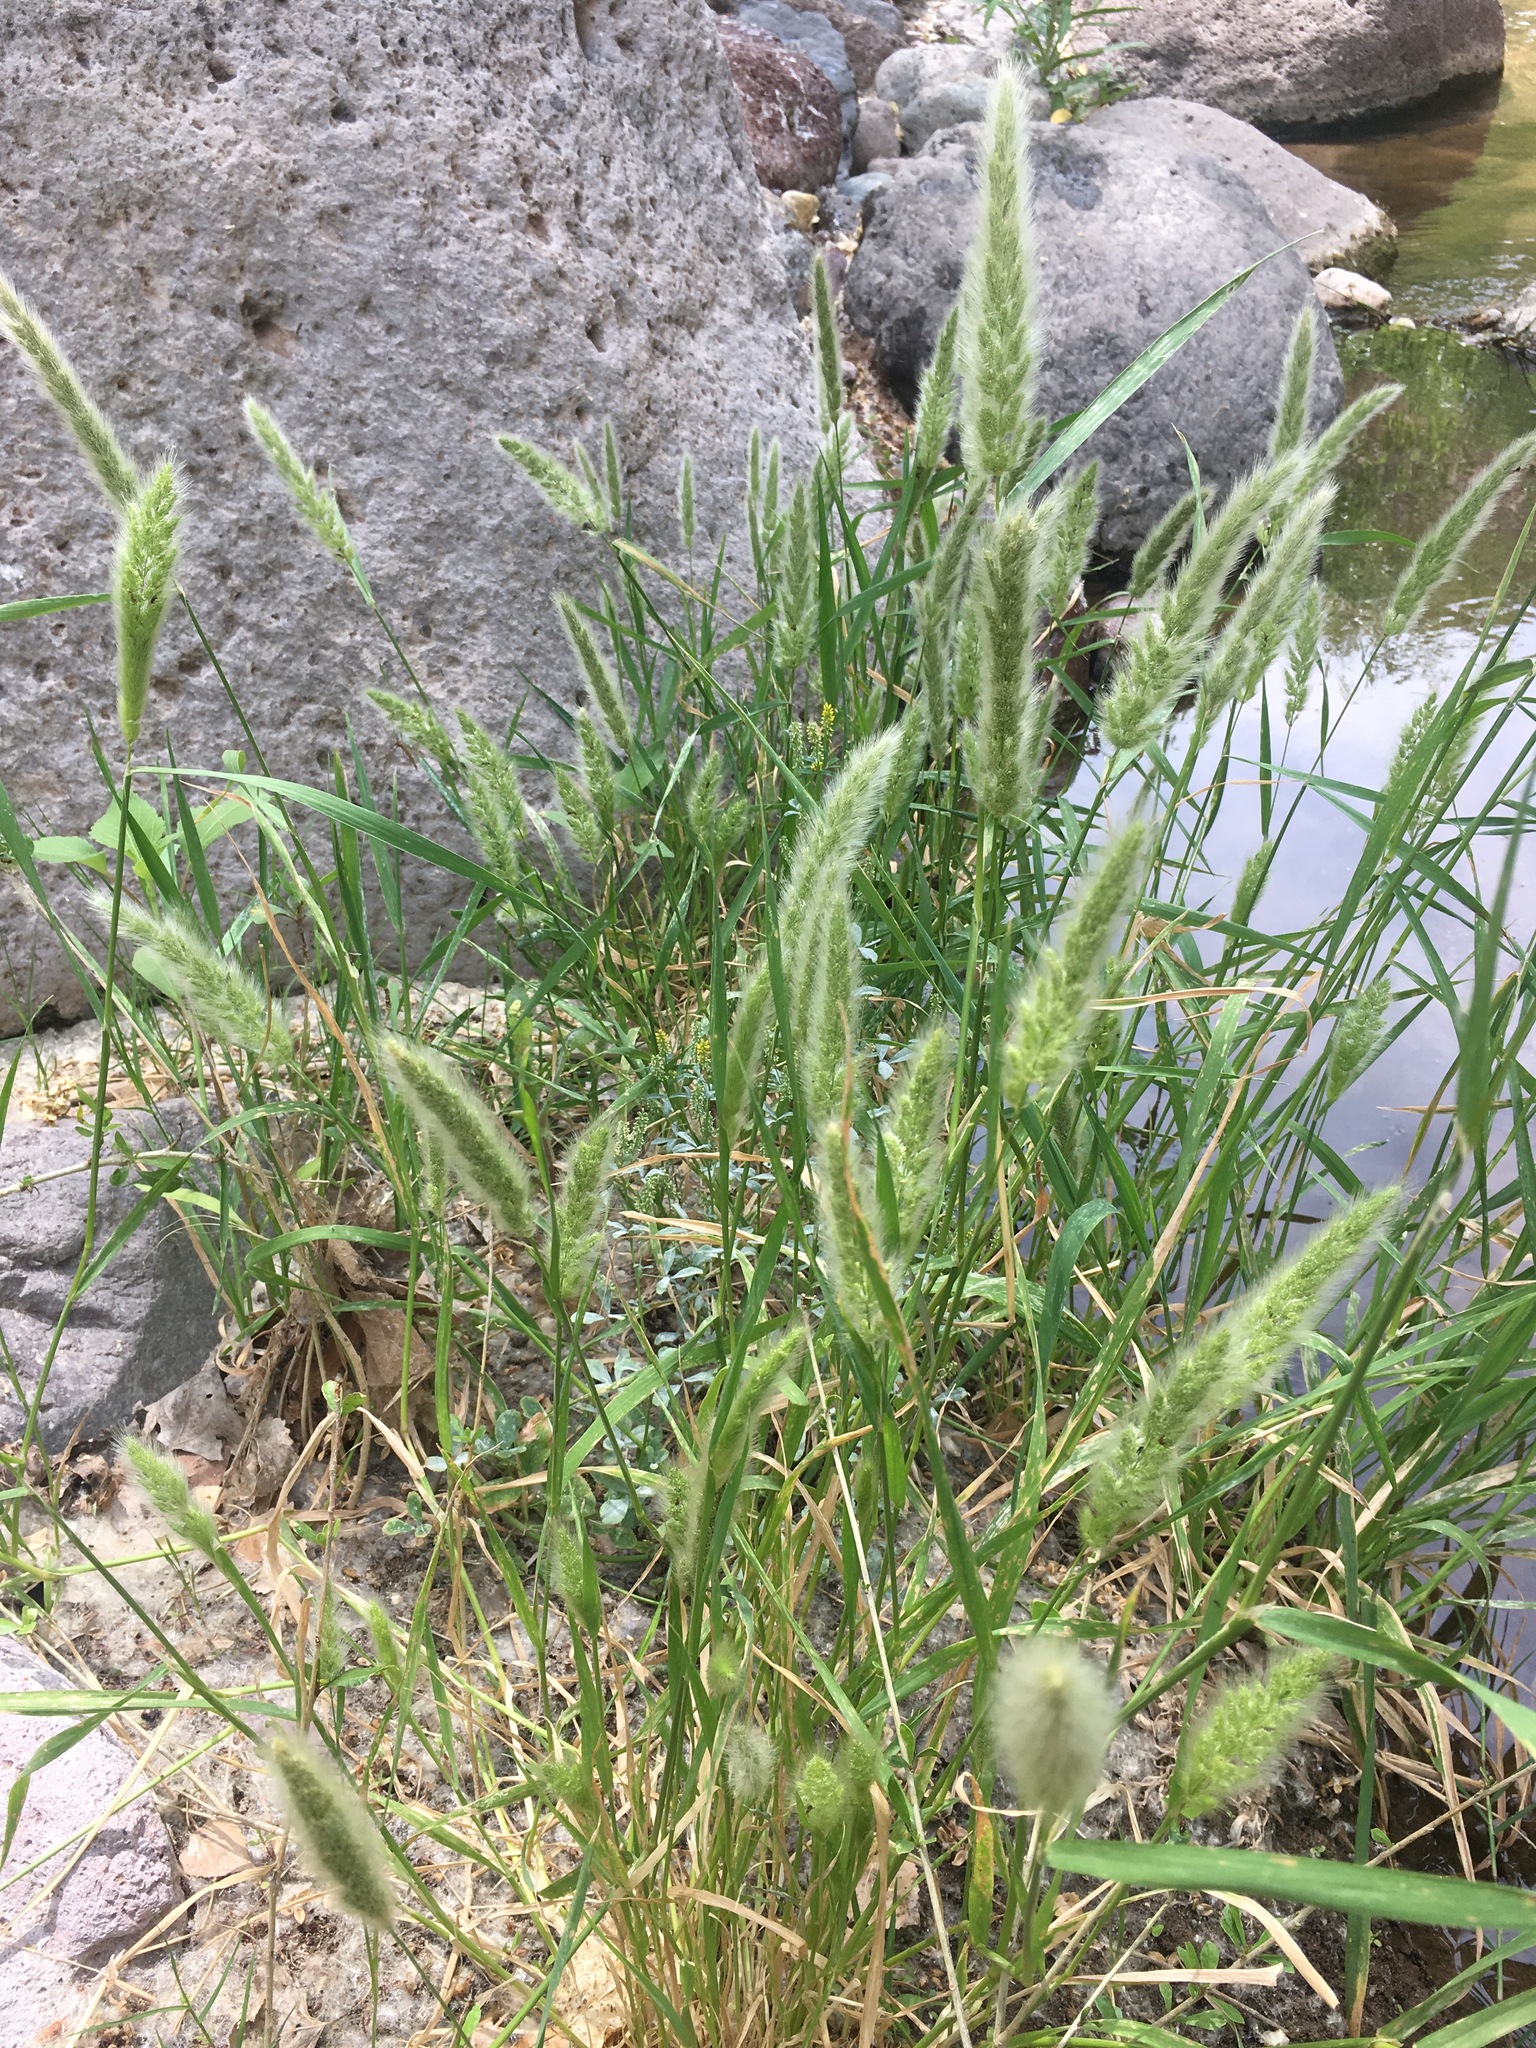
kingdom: Plantae
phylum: Tracheophyta
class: Liliopsida
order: Poales
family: Poaceae
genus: Polypogon
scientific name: Polypogon monspeliensis
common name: Annual rabbitsfoot grass
